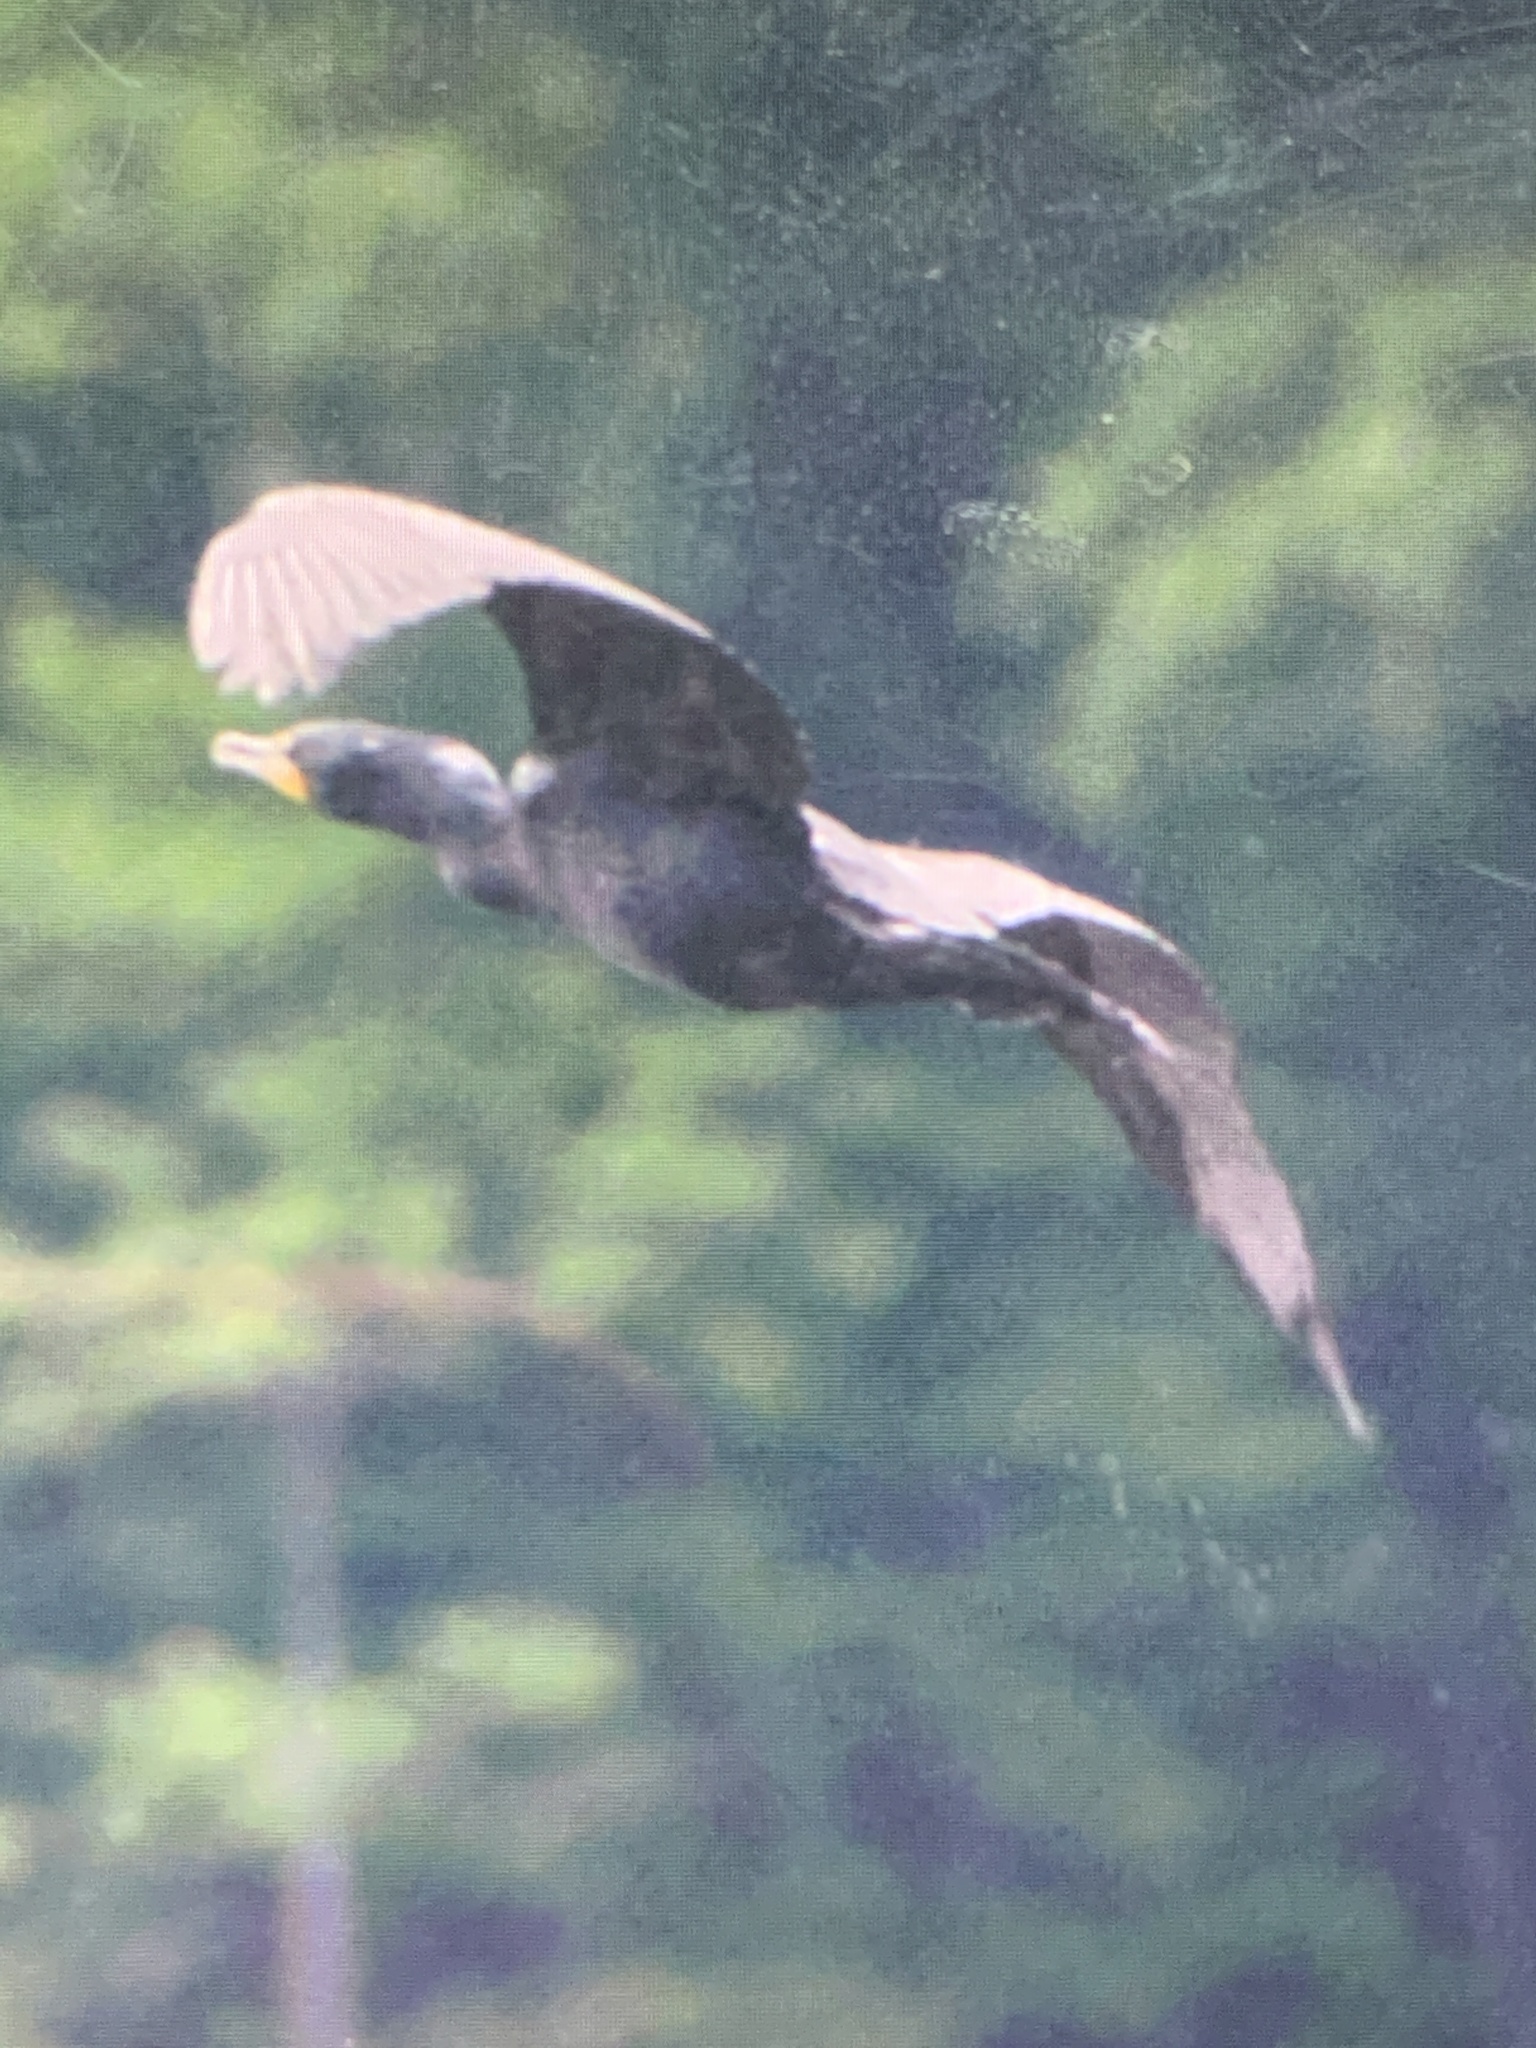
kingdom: Animalia
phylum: Chordata
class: Aves
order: Suliformes
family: Phalacrocoracidae
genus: Phalacrocorax
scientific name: Phalacrocorax auritus
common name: Double-crested cormorant
